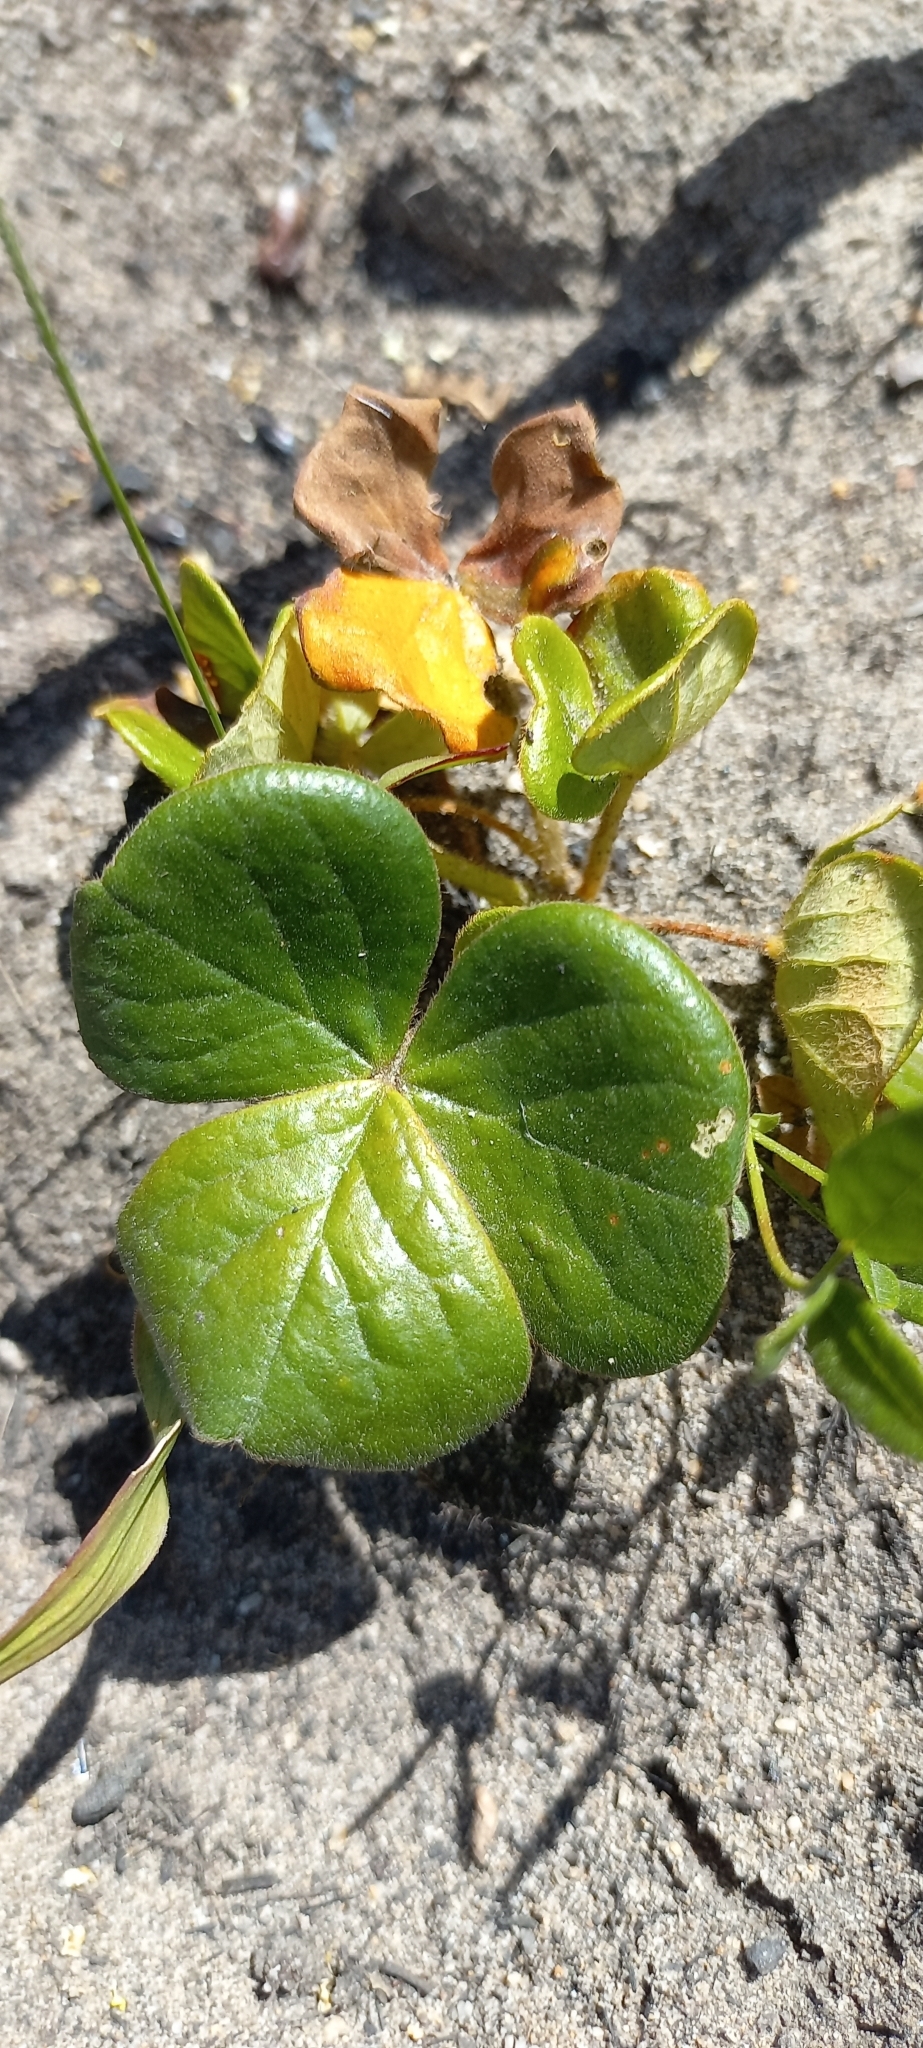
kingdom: Plantae
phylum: Tracheophyta
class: Magnoliopsida
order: Oxalidales
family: Oxalidaceae
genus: Oxalis
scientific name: Oxalis truncatula
